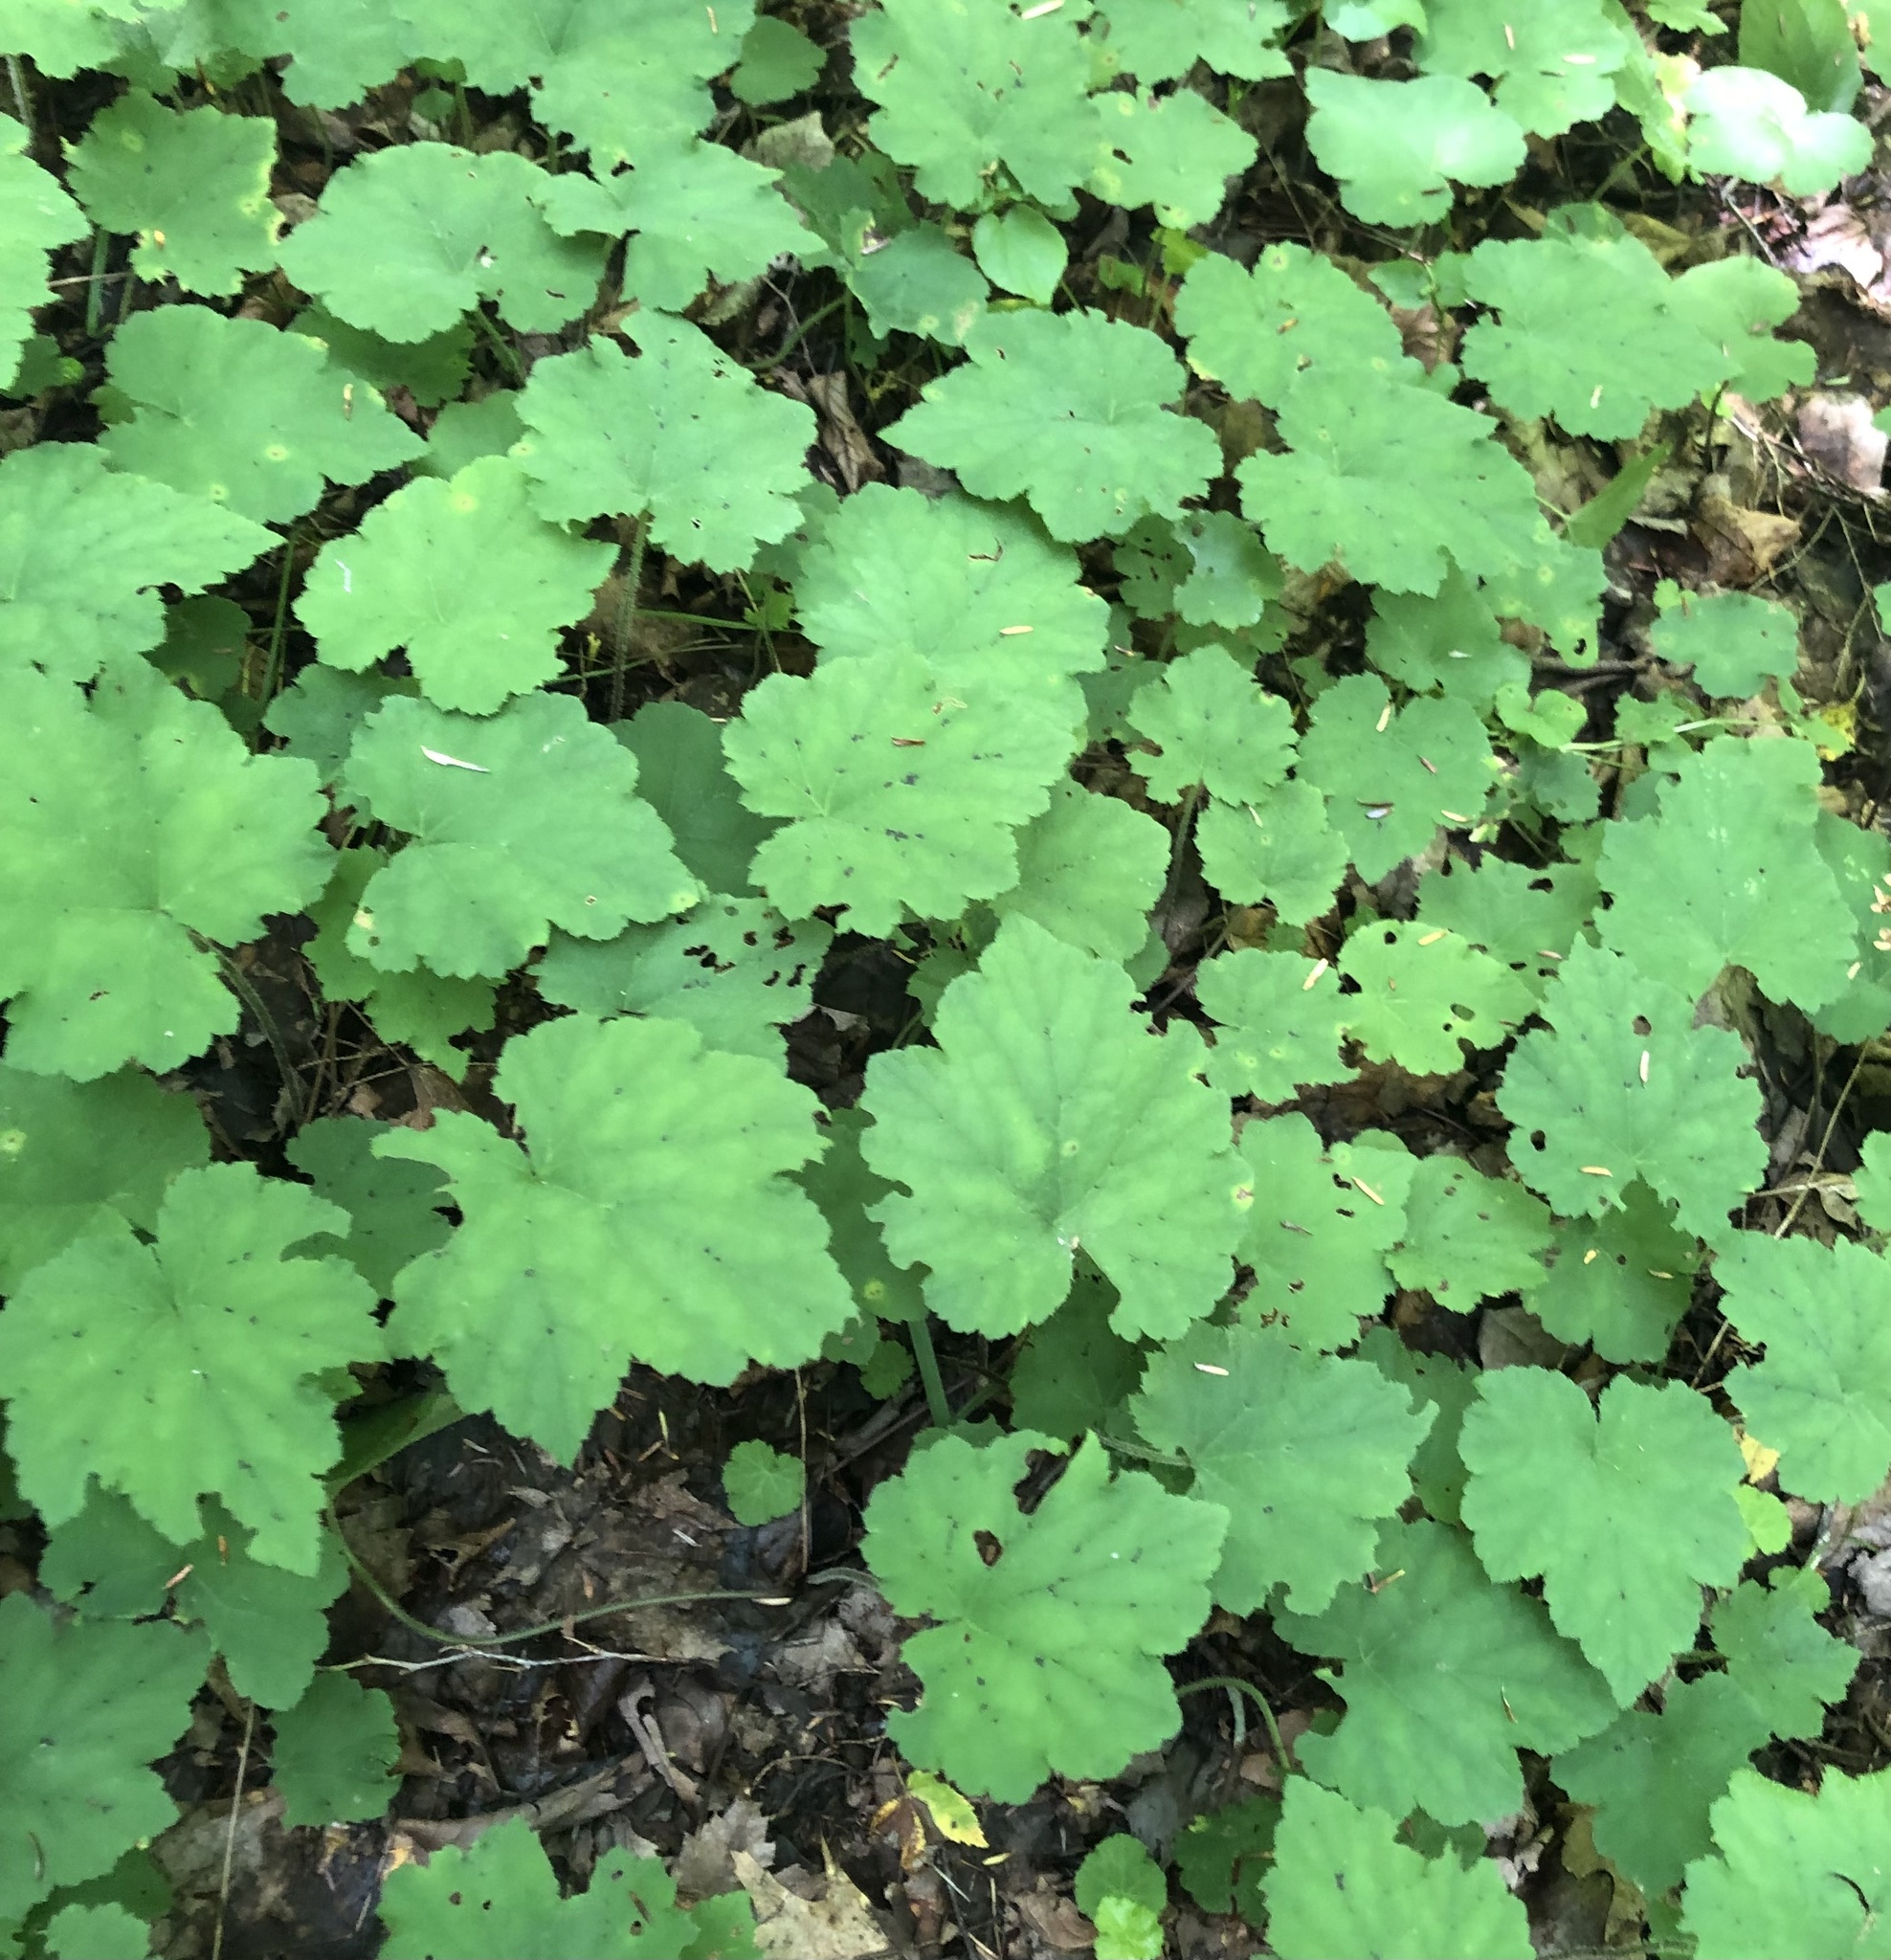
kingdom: Plantae
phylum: Tracheophyta
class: Magnoliopsida
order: Saxifragales
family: Saxifragaceae
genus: Tiarella
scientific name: Tiarella stolonifera
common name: Stoloniferous foamflower
